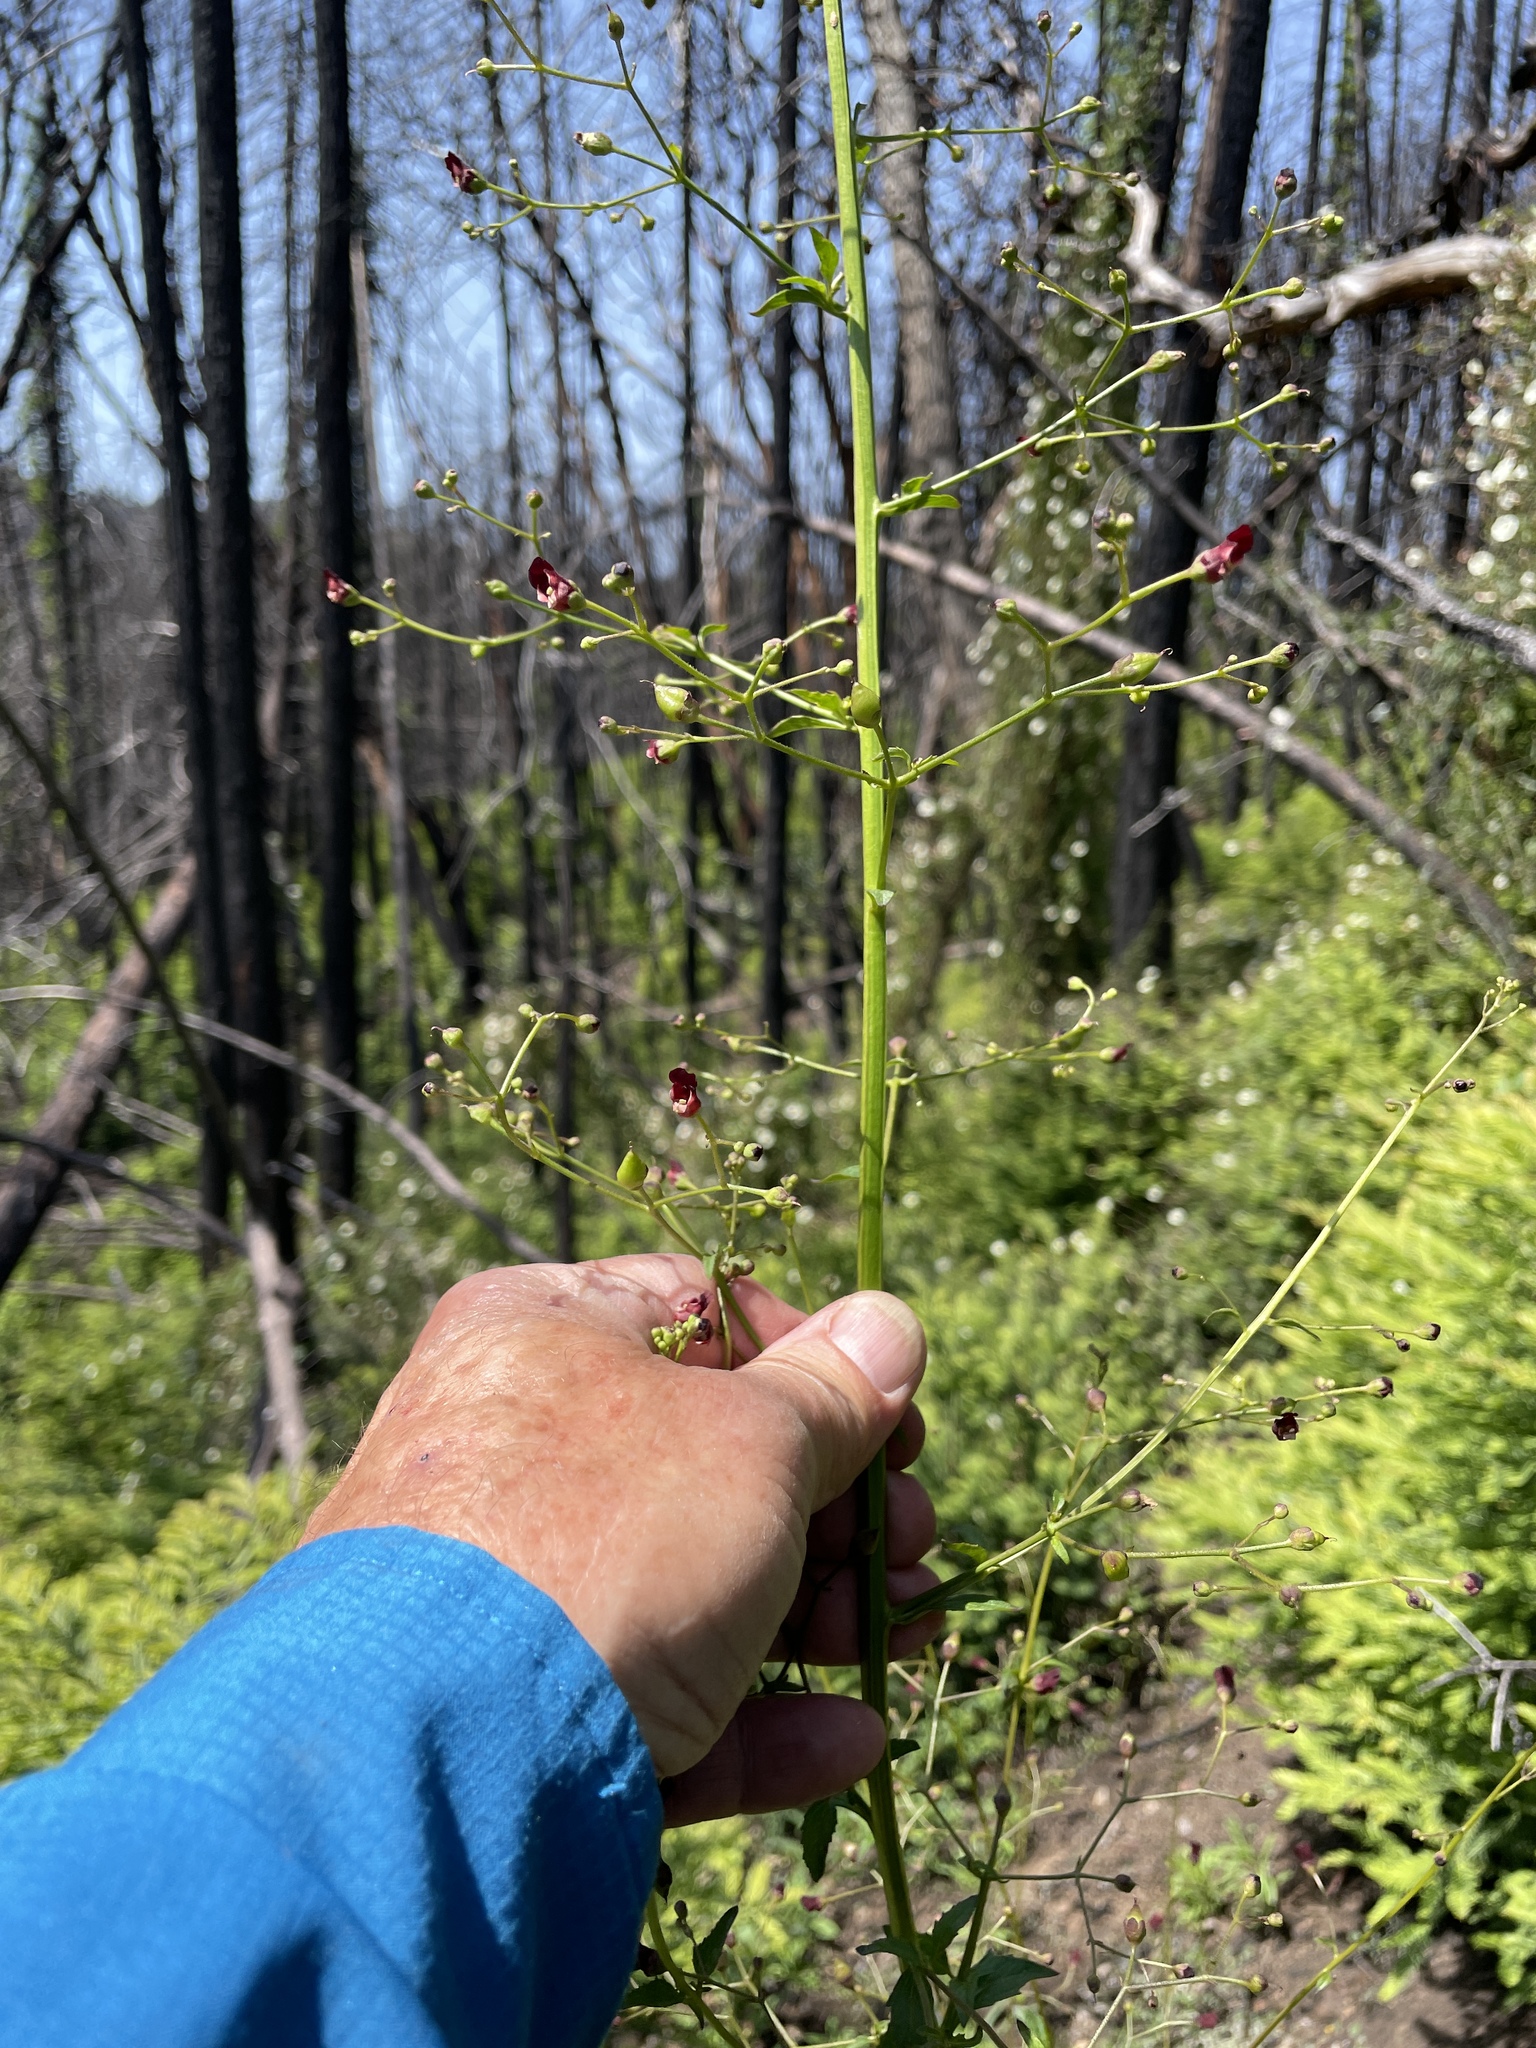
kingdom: Plantae
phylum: Tracheophyta
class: Magnoliopsida
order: Lamiales
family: Scrophulariaceae
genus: Scrophularia
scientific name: Scrophularia californica
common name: California figwort
